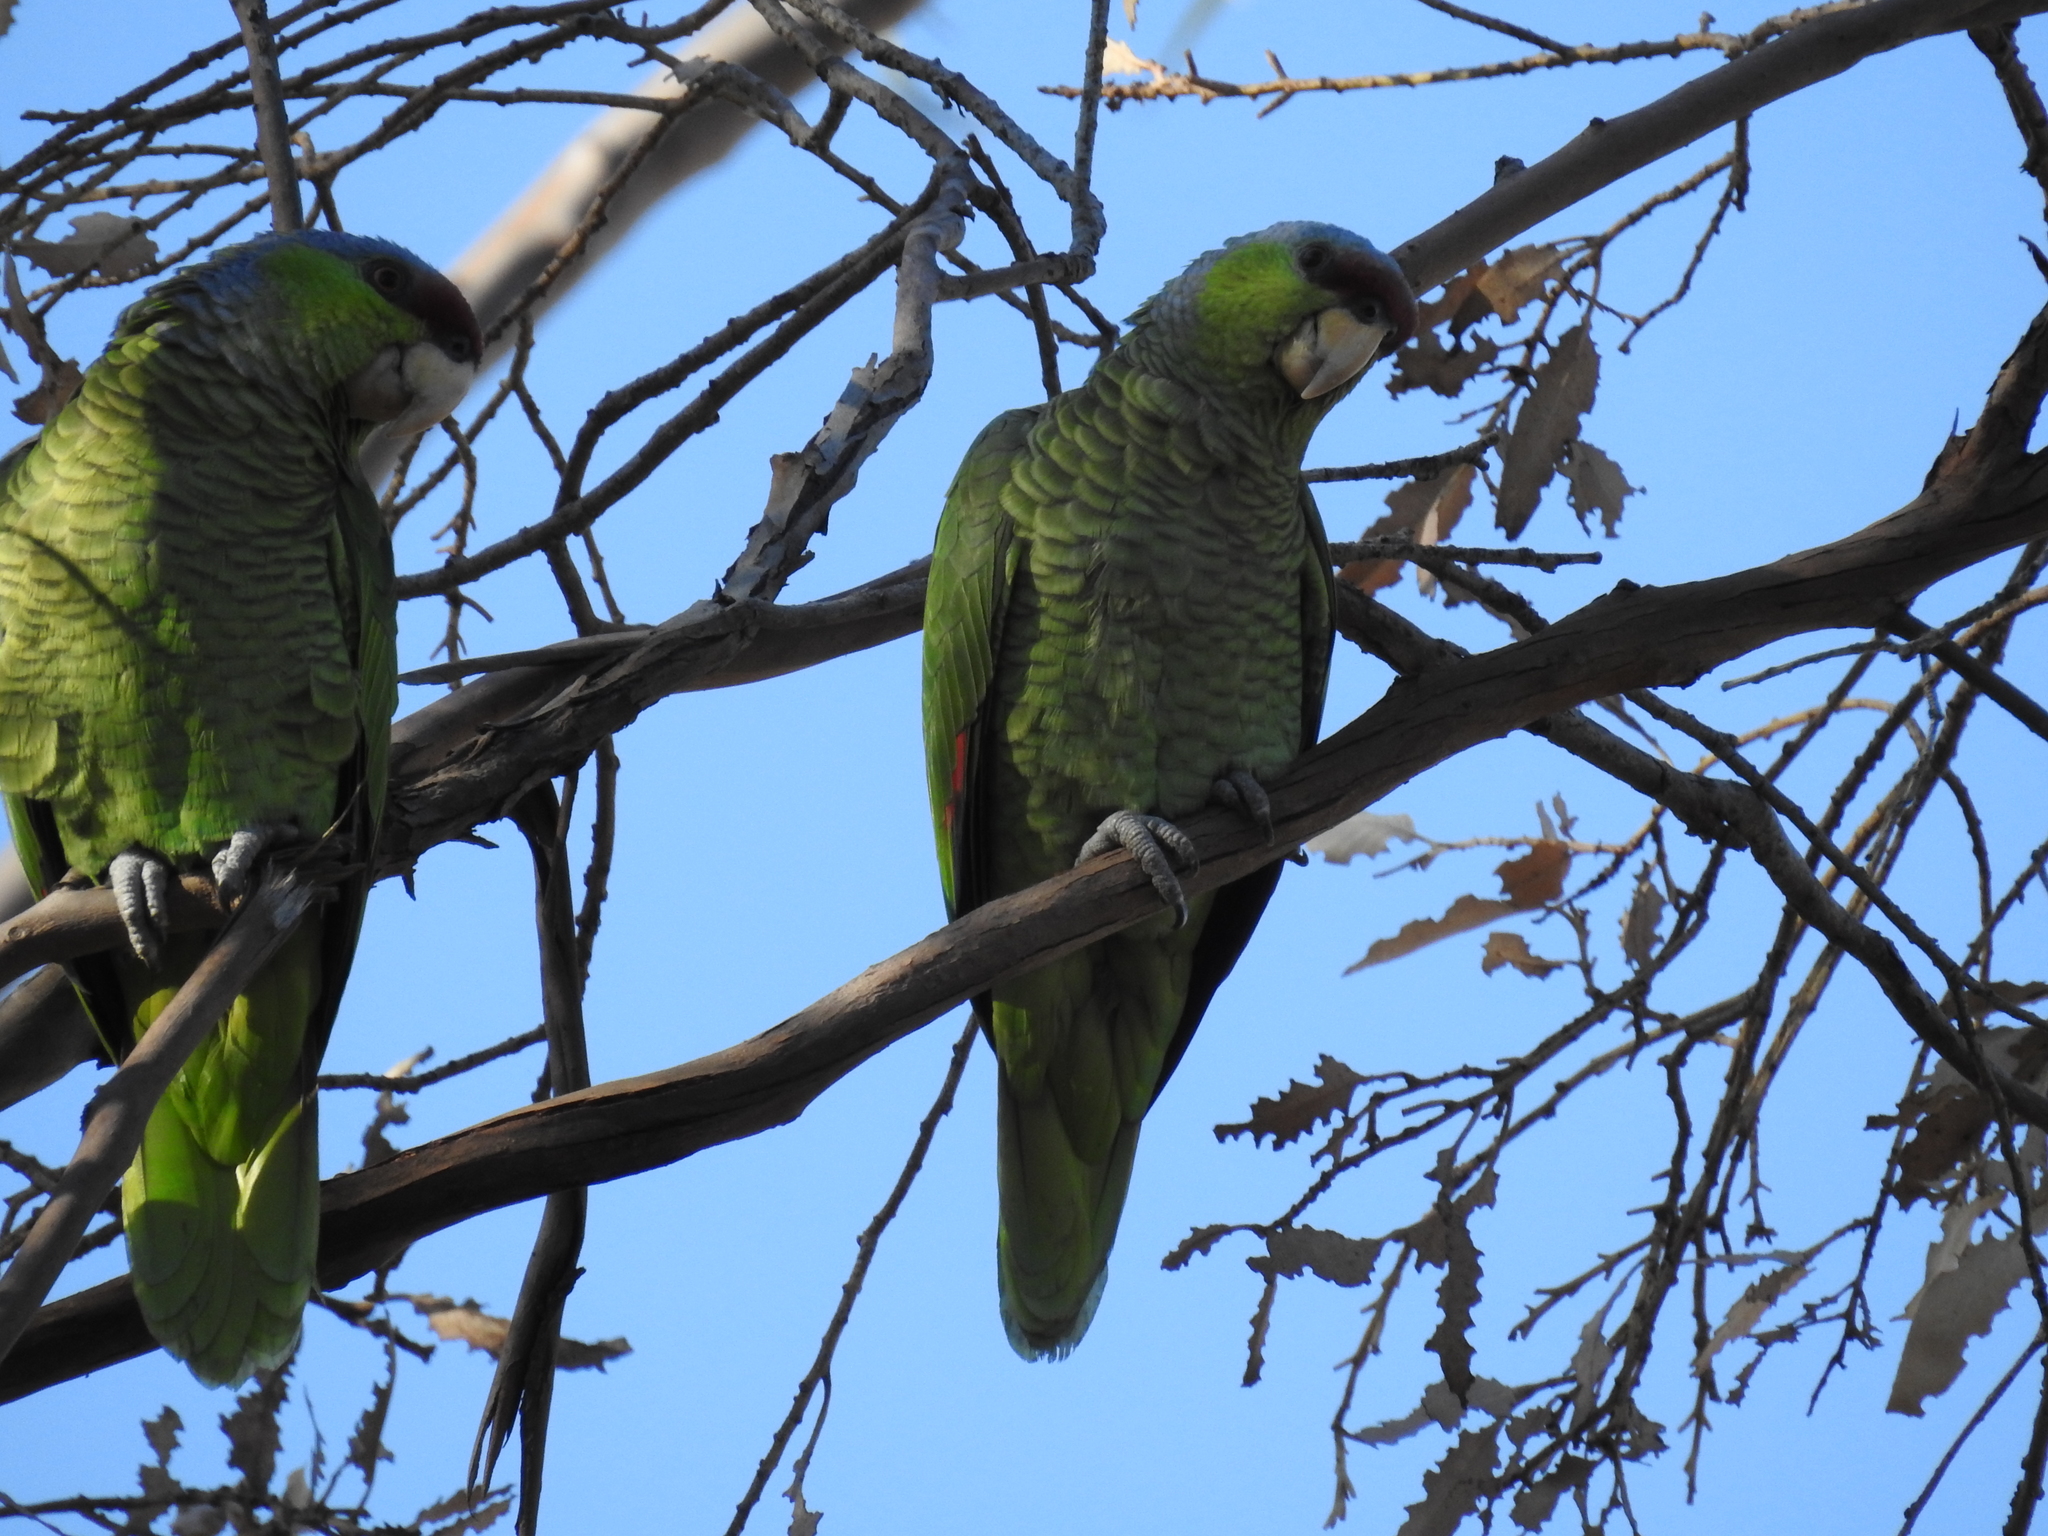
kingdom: Animalia
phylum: Chordata
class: Aves
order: Psittaciformes
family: Psittacidae
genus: Amazona
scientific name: Amazona finschi
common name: Lilac-crowned amazon
